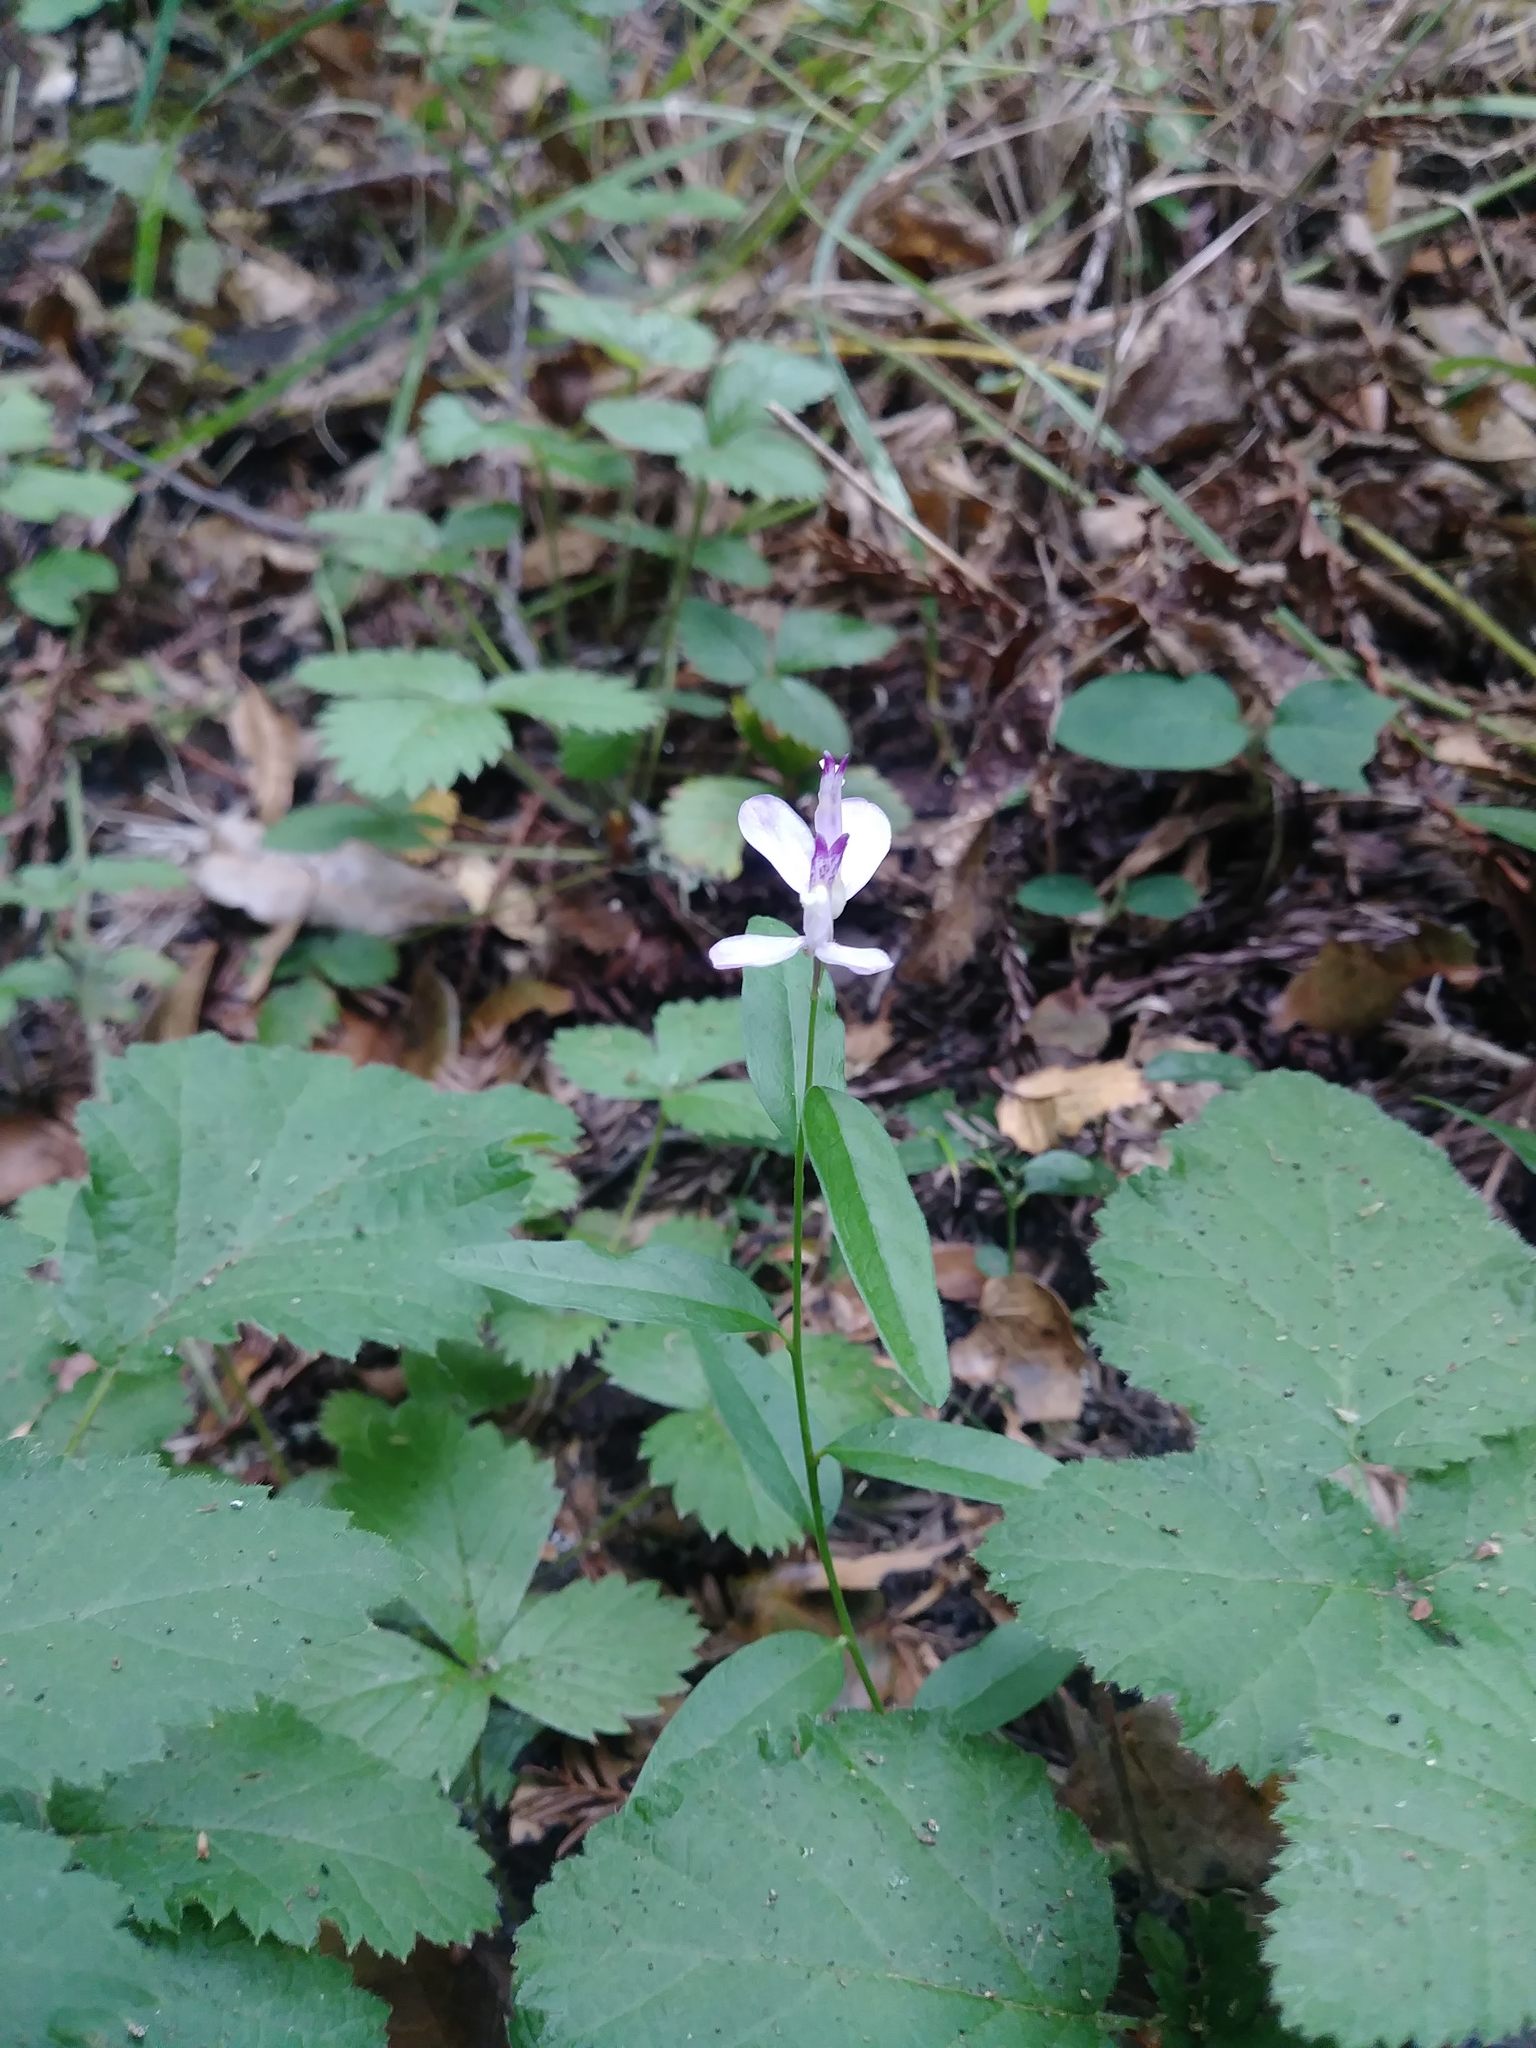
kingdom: Plantae
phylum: Tracheophyta
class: Magnoliopsida
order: Fabales
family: Polygalaceae
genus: Rhinotropis
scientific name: Rhinotropis californica
